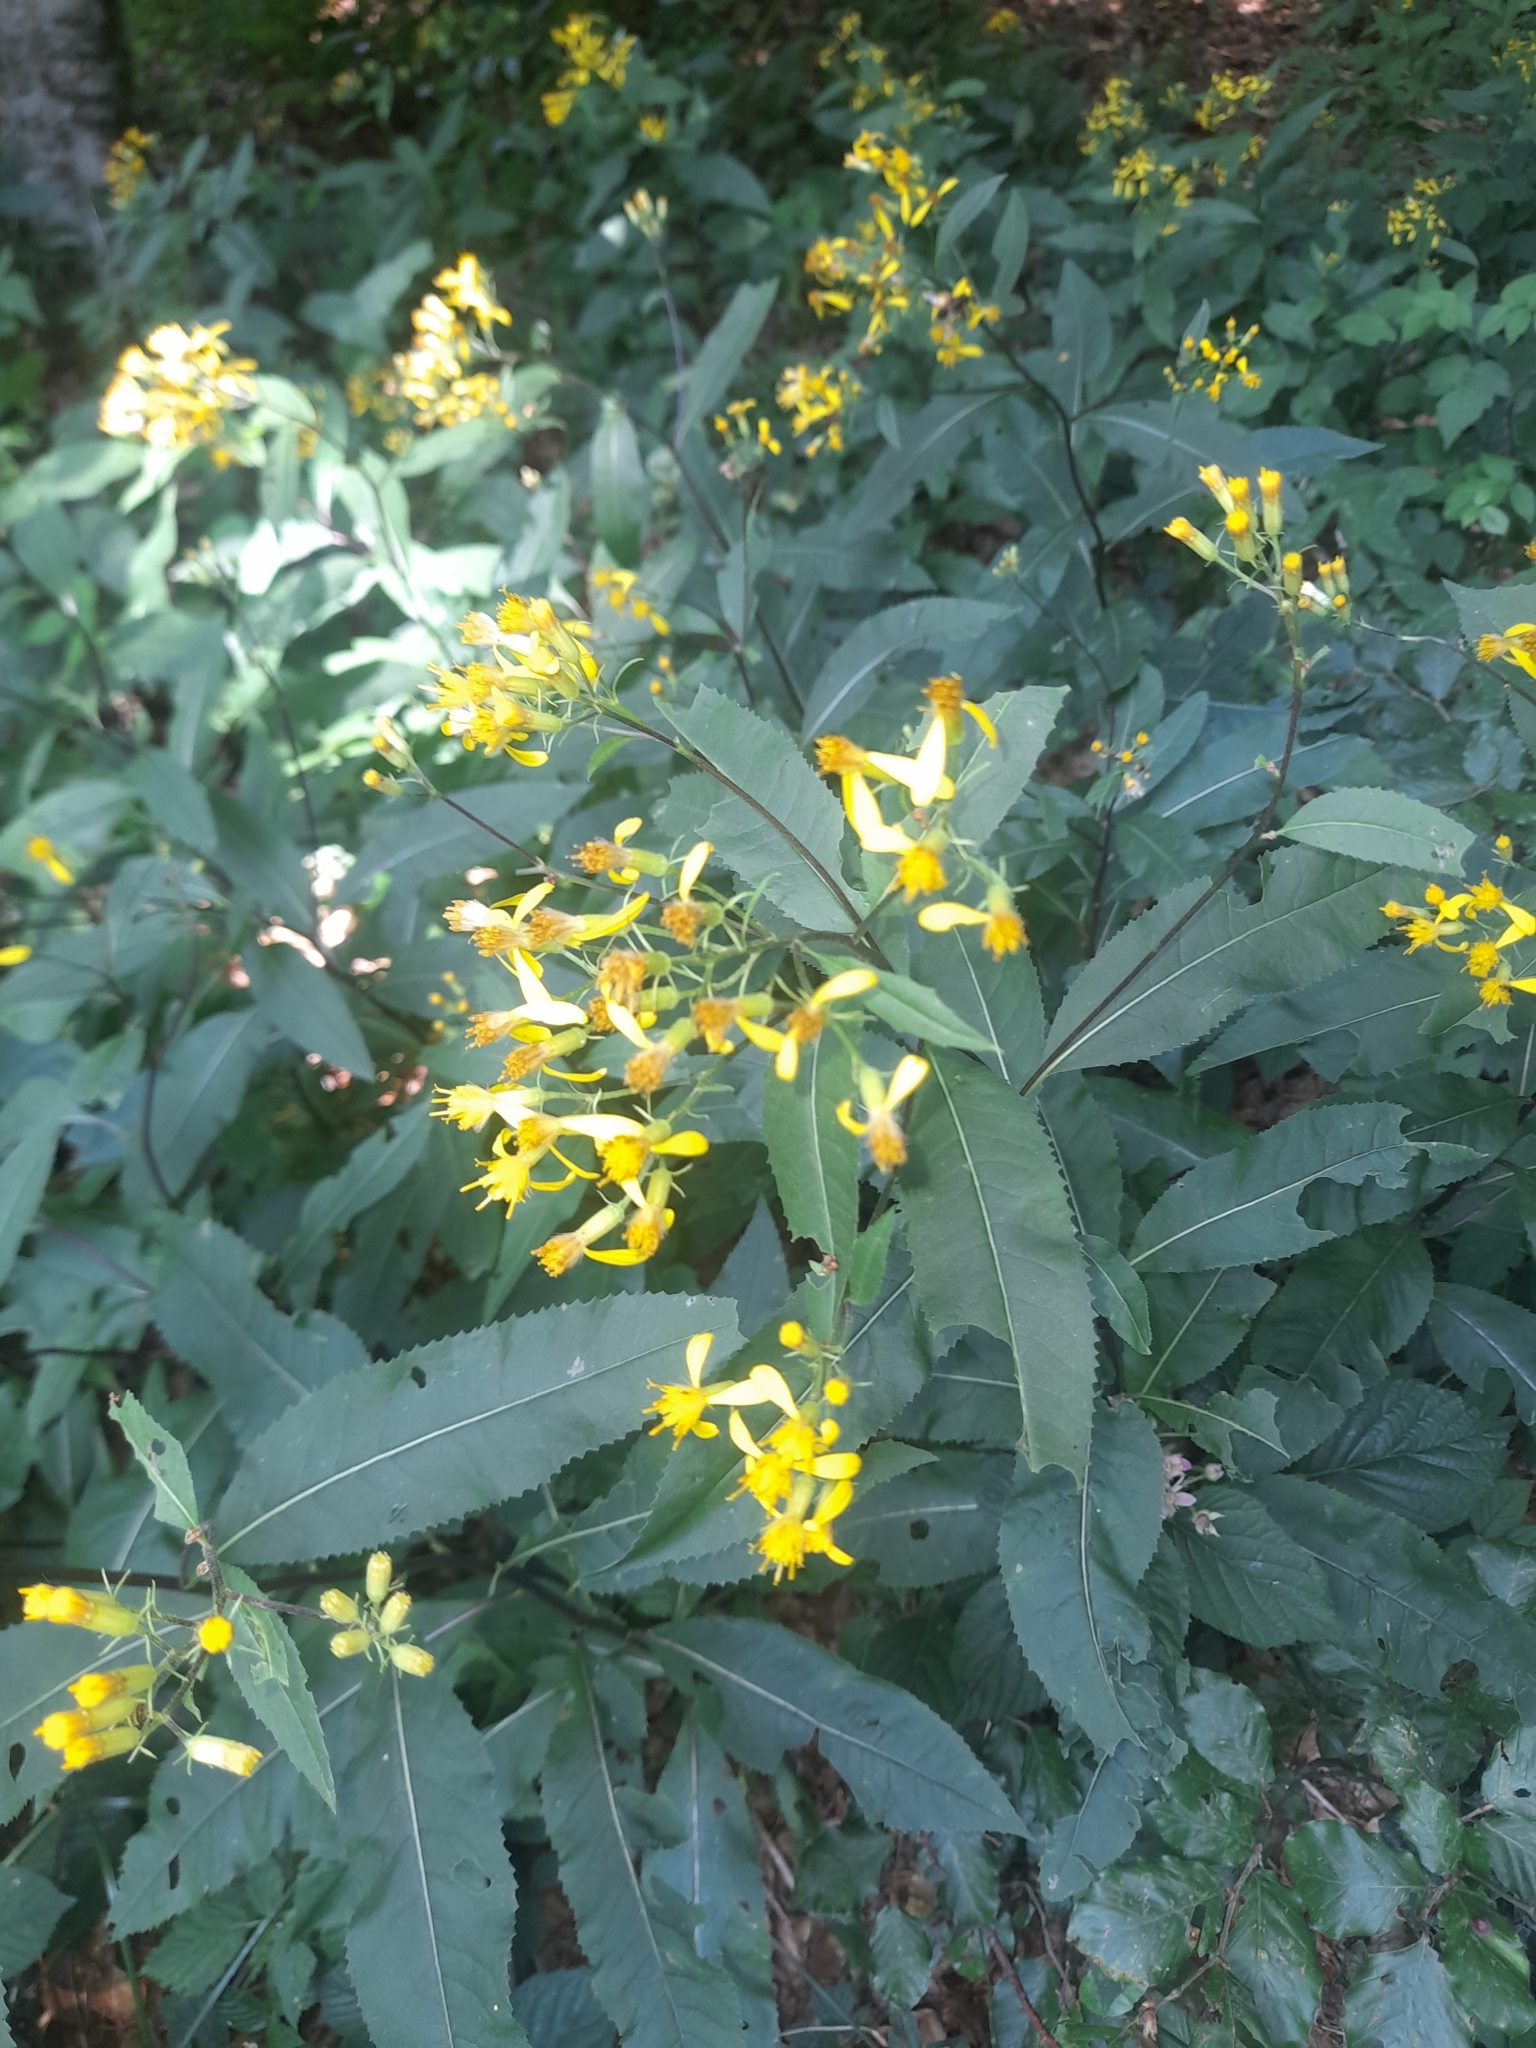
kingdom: Plantae
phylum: Tracheophyta
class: Magnoliopsida
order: Asterales
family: Asteraceae
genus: Senecio
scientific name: Senecio ovatus
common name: Wood ragwort
